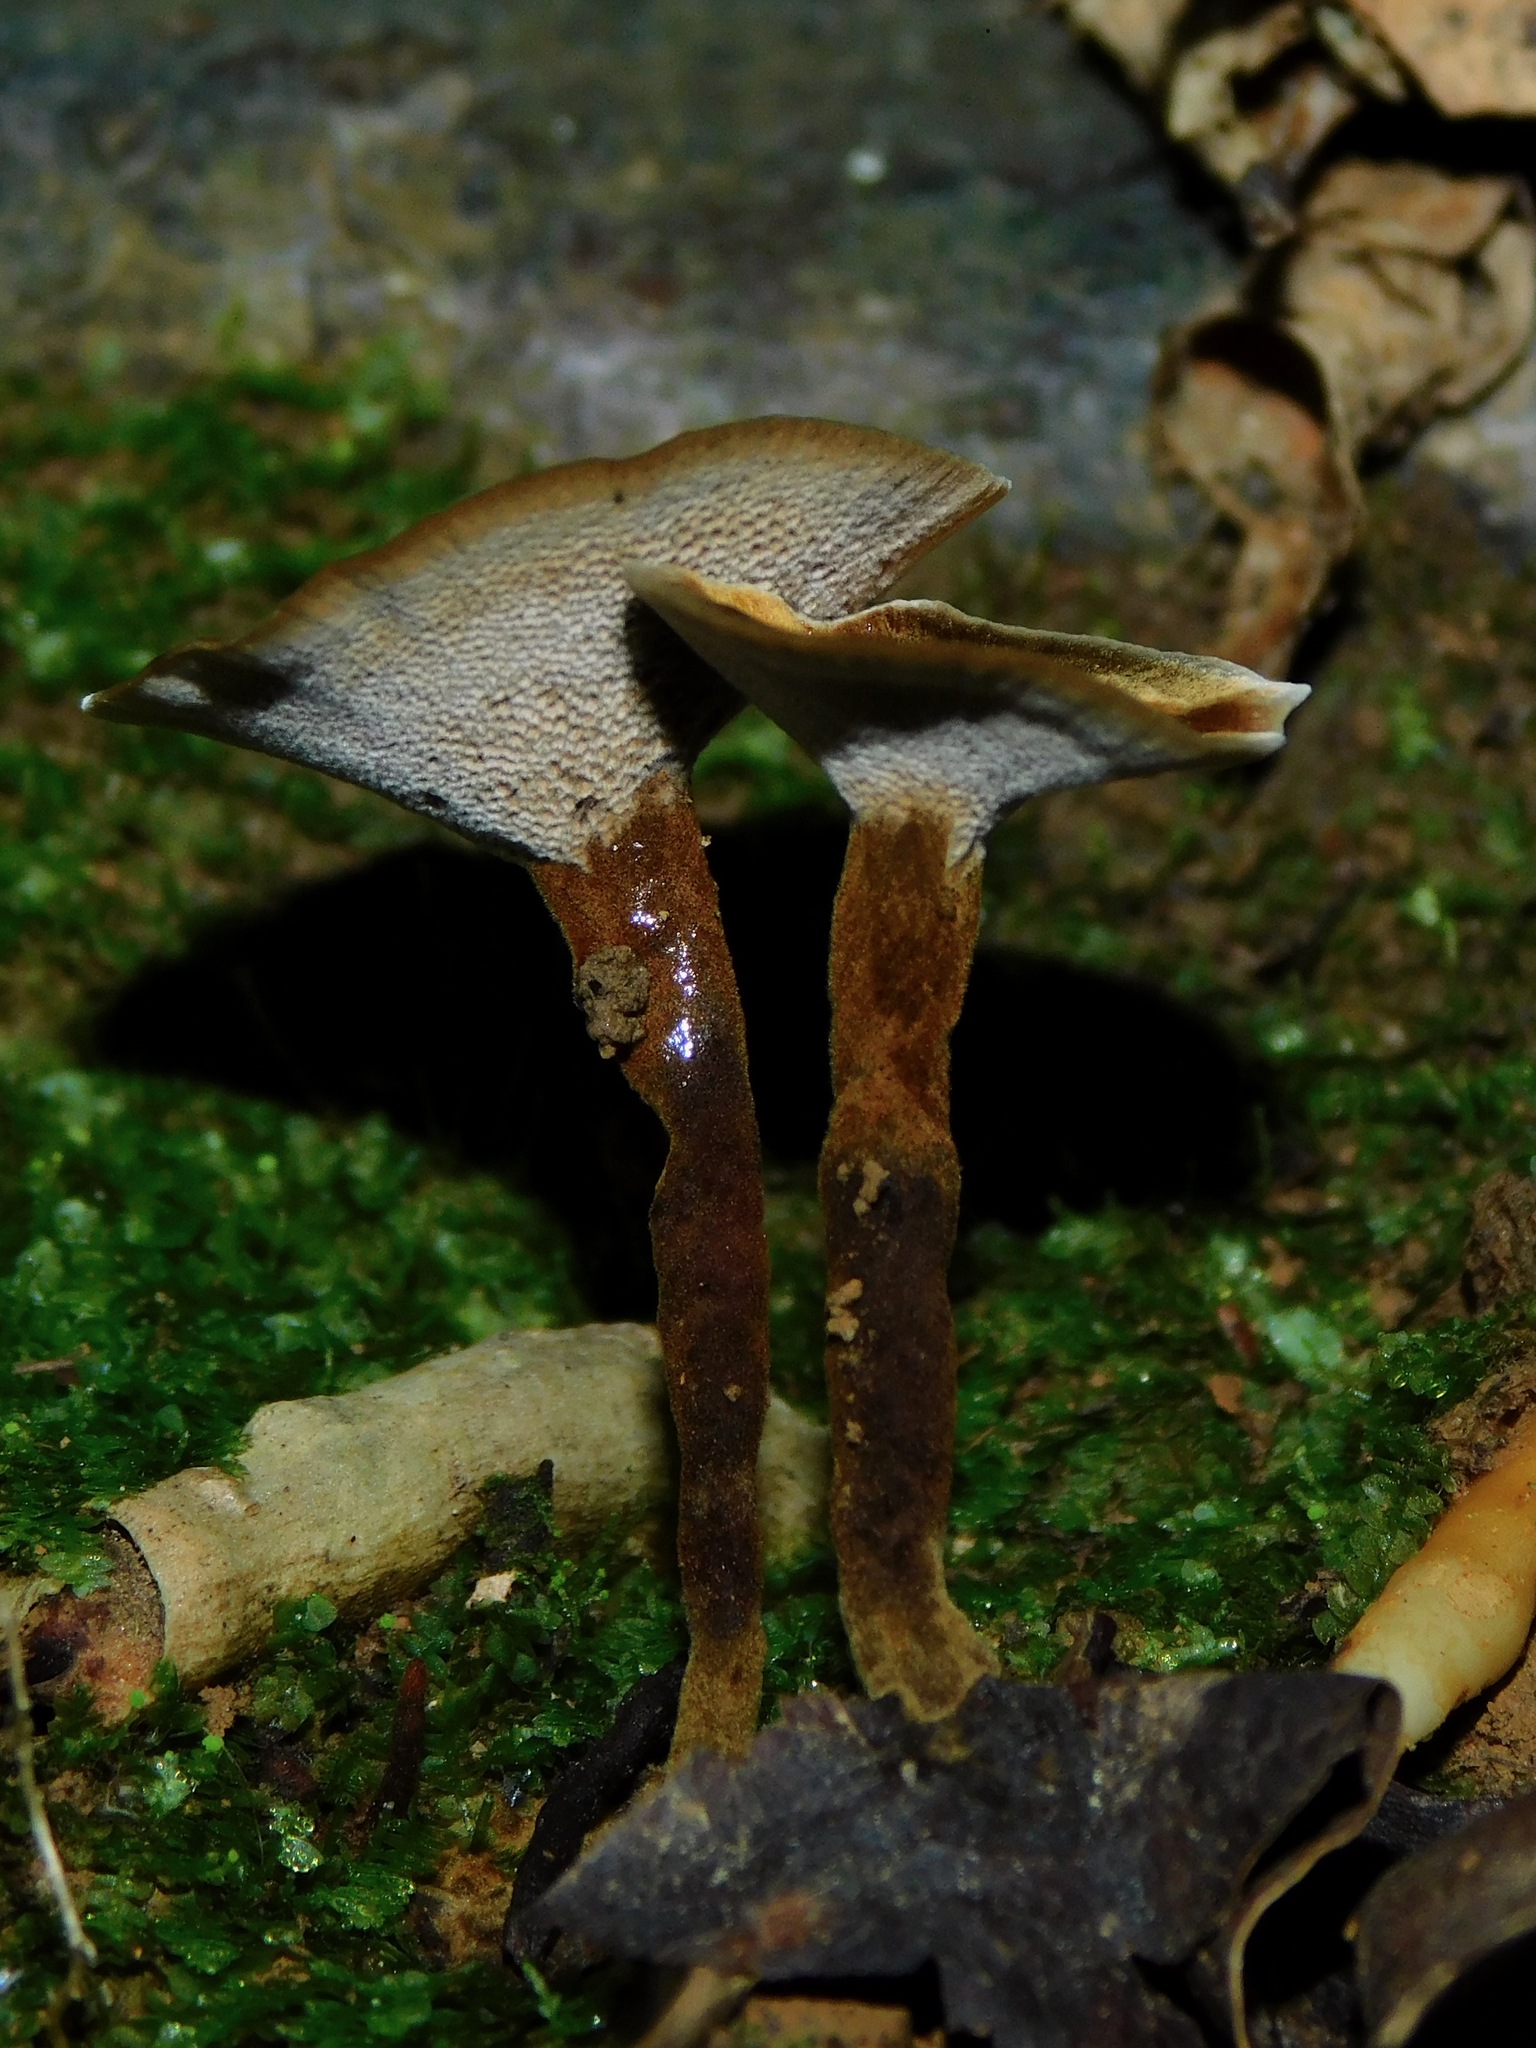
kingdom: Fungi
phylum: Basidiomycota
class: Agaricomycetes
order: Hymenochaetales
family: Hymenochaetaceae
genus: Coltricia
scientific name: Coltricia cinnamomea
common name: Shiny cinnamon polypore
